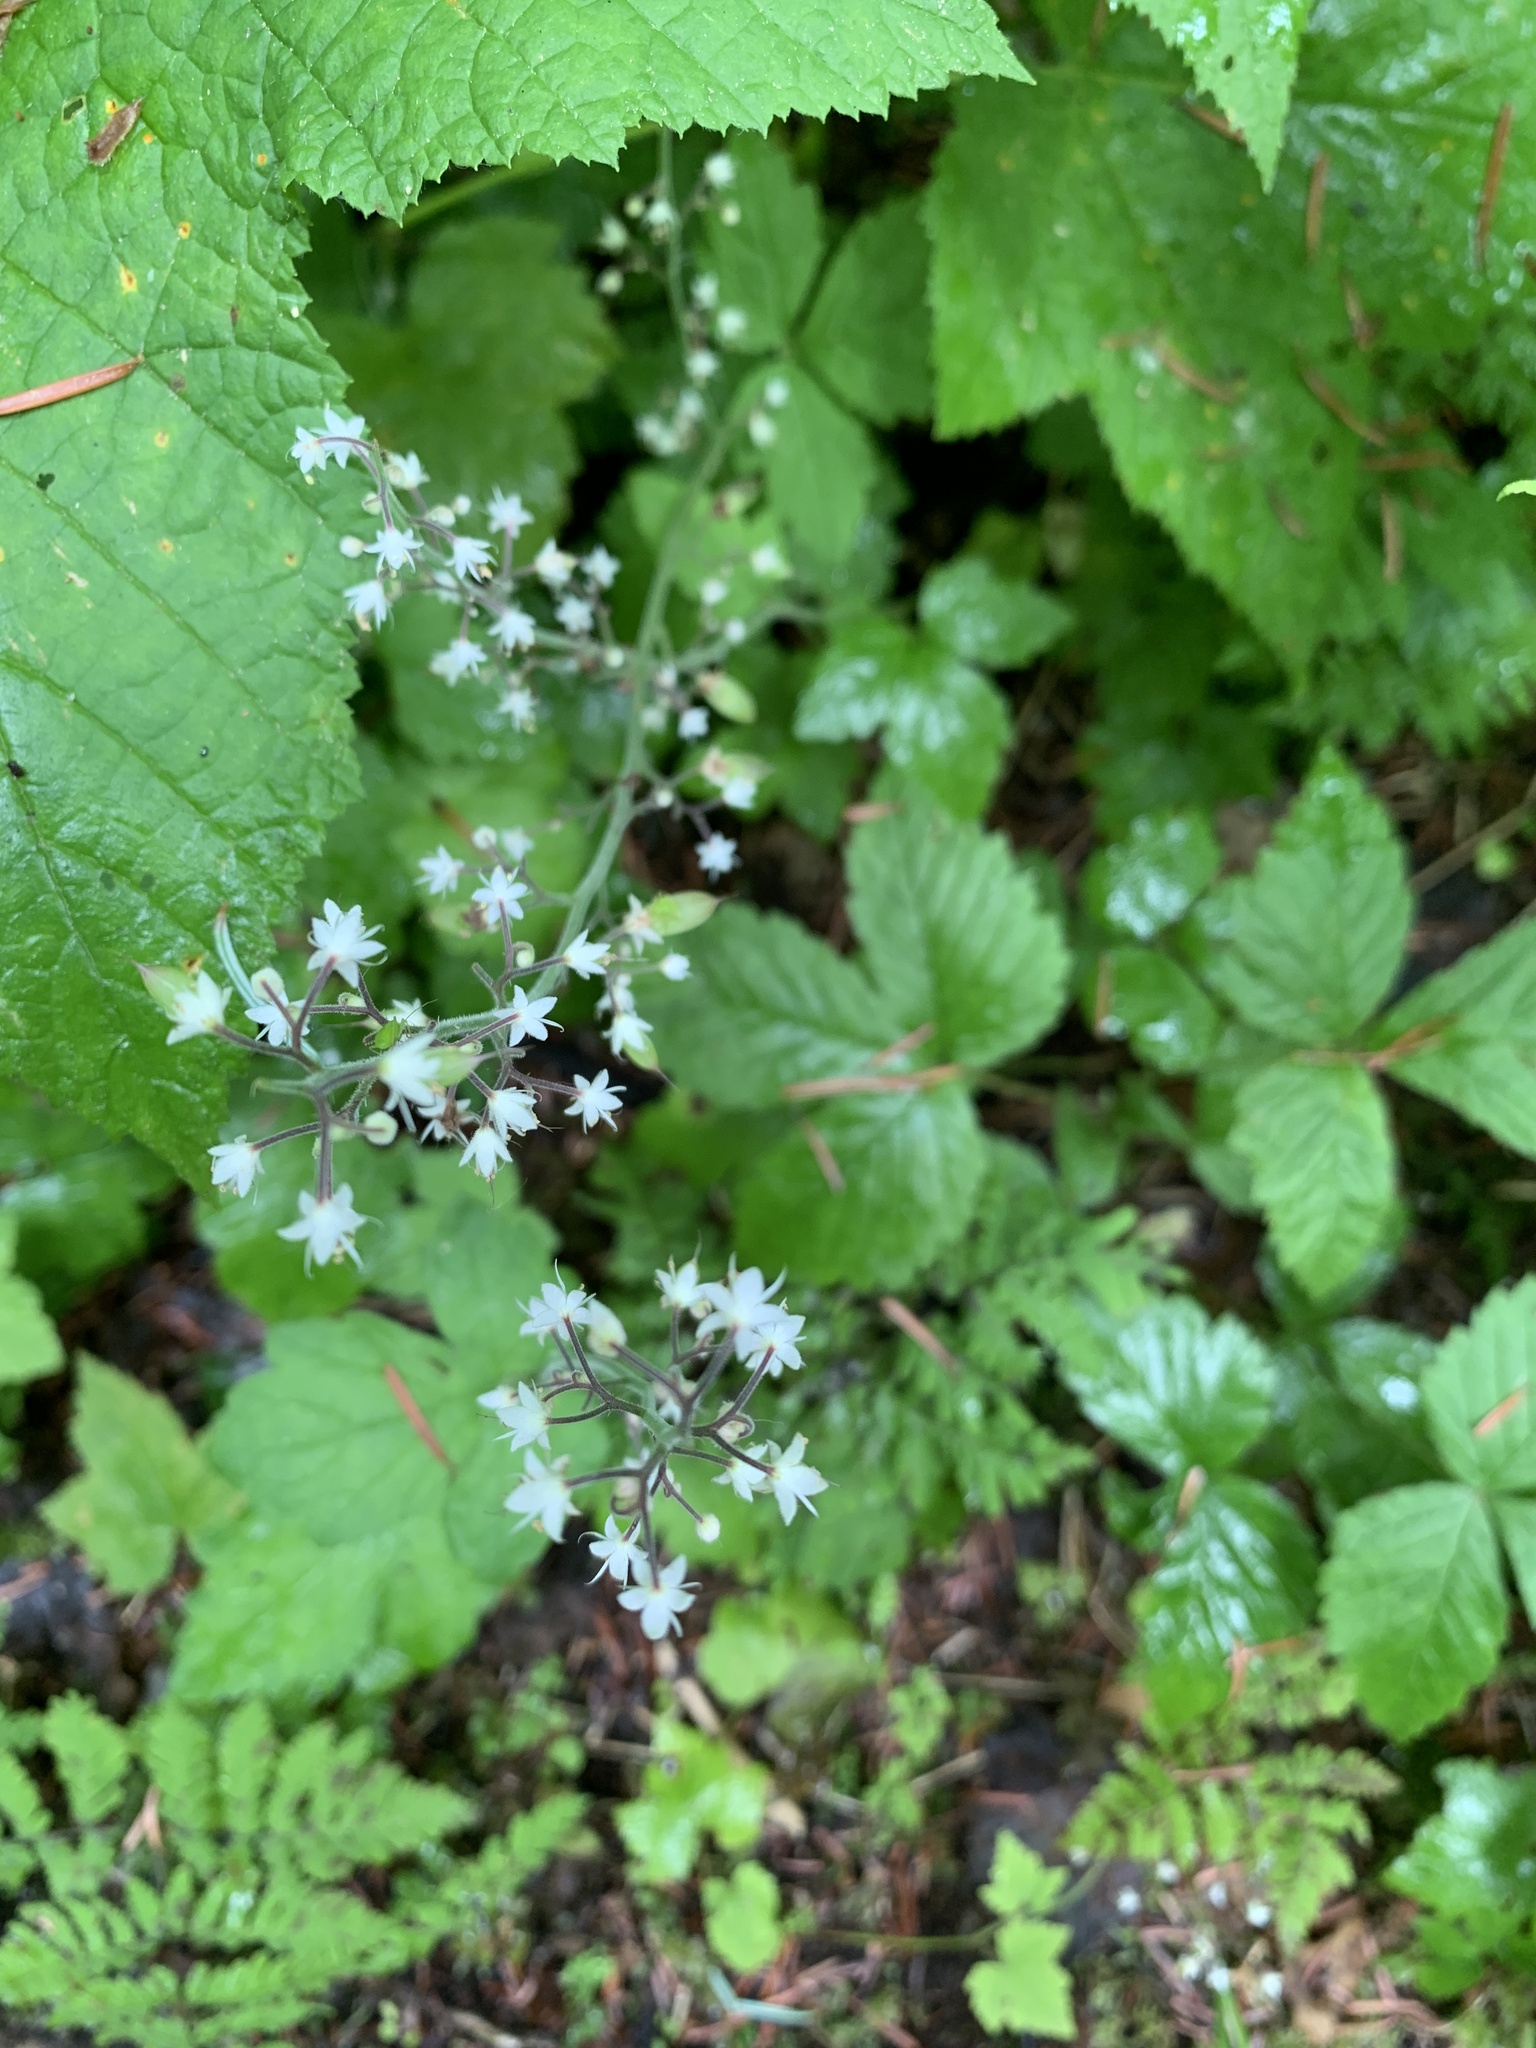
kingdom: Plantae
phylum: Tracheophyta
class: Magnoliopsida
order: Saxifragales
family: Saxifragaceae
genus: Tiarella
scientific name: Tiarella trifoliata
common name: Sugar-scoop
